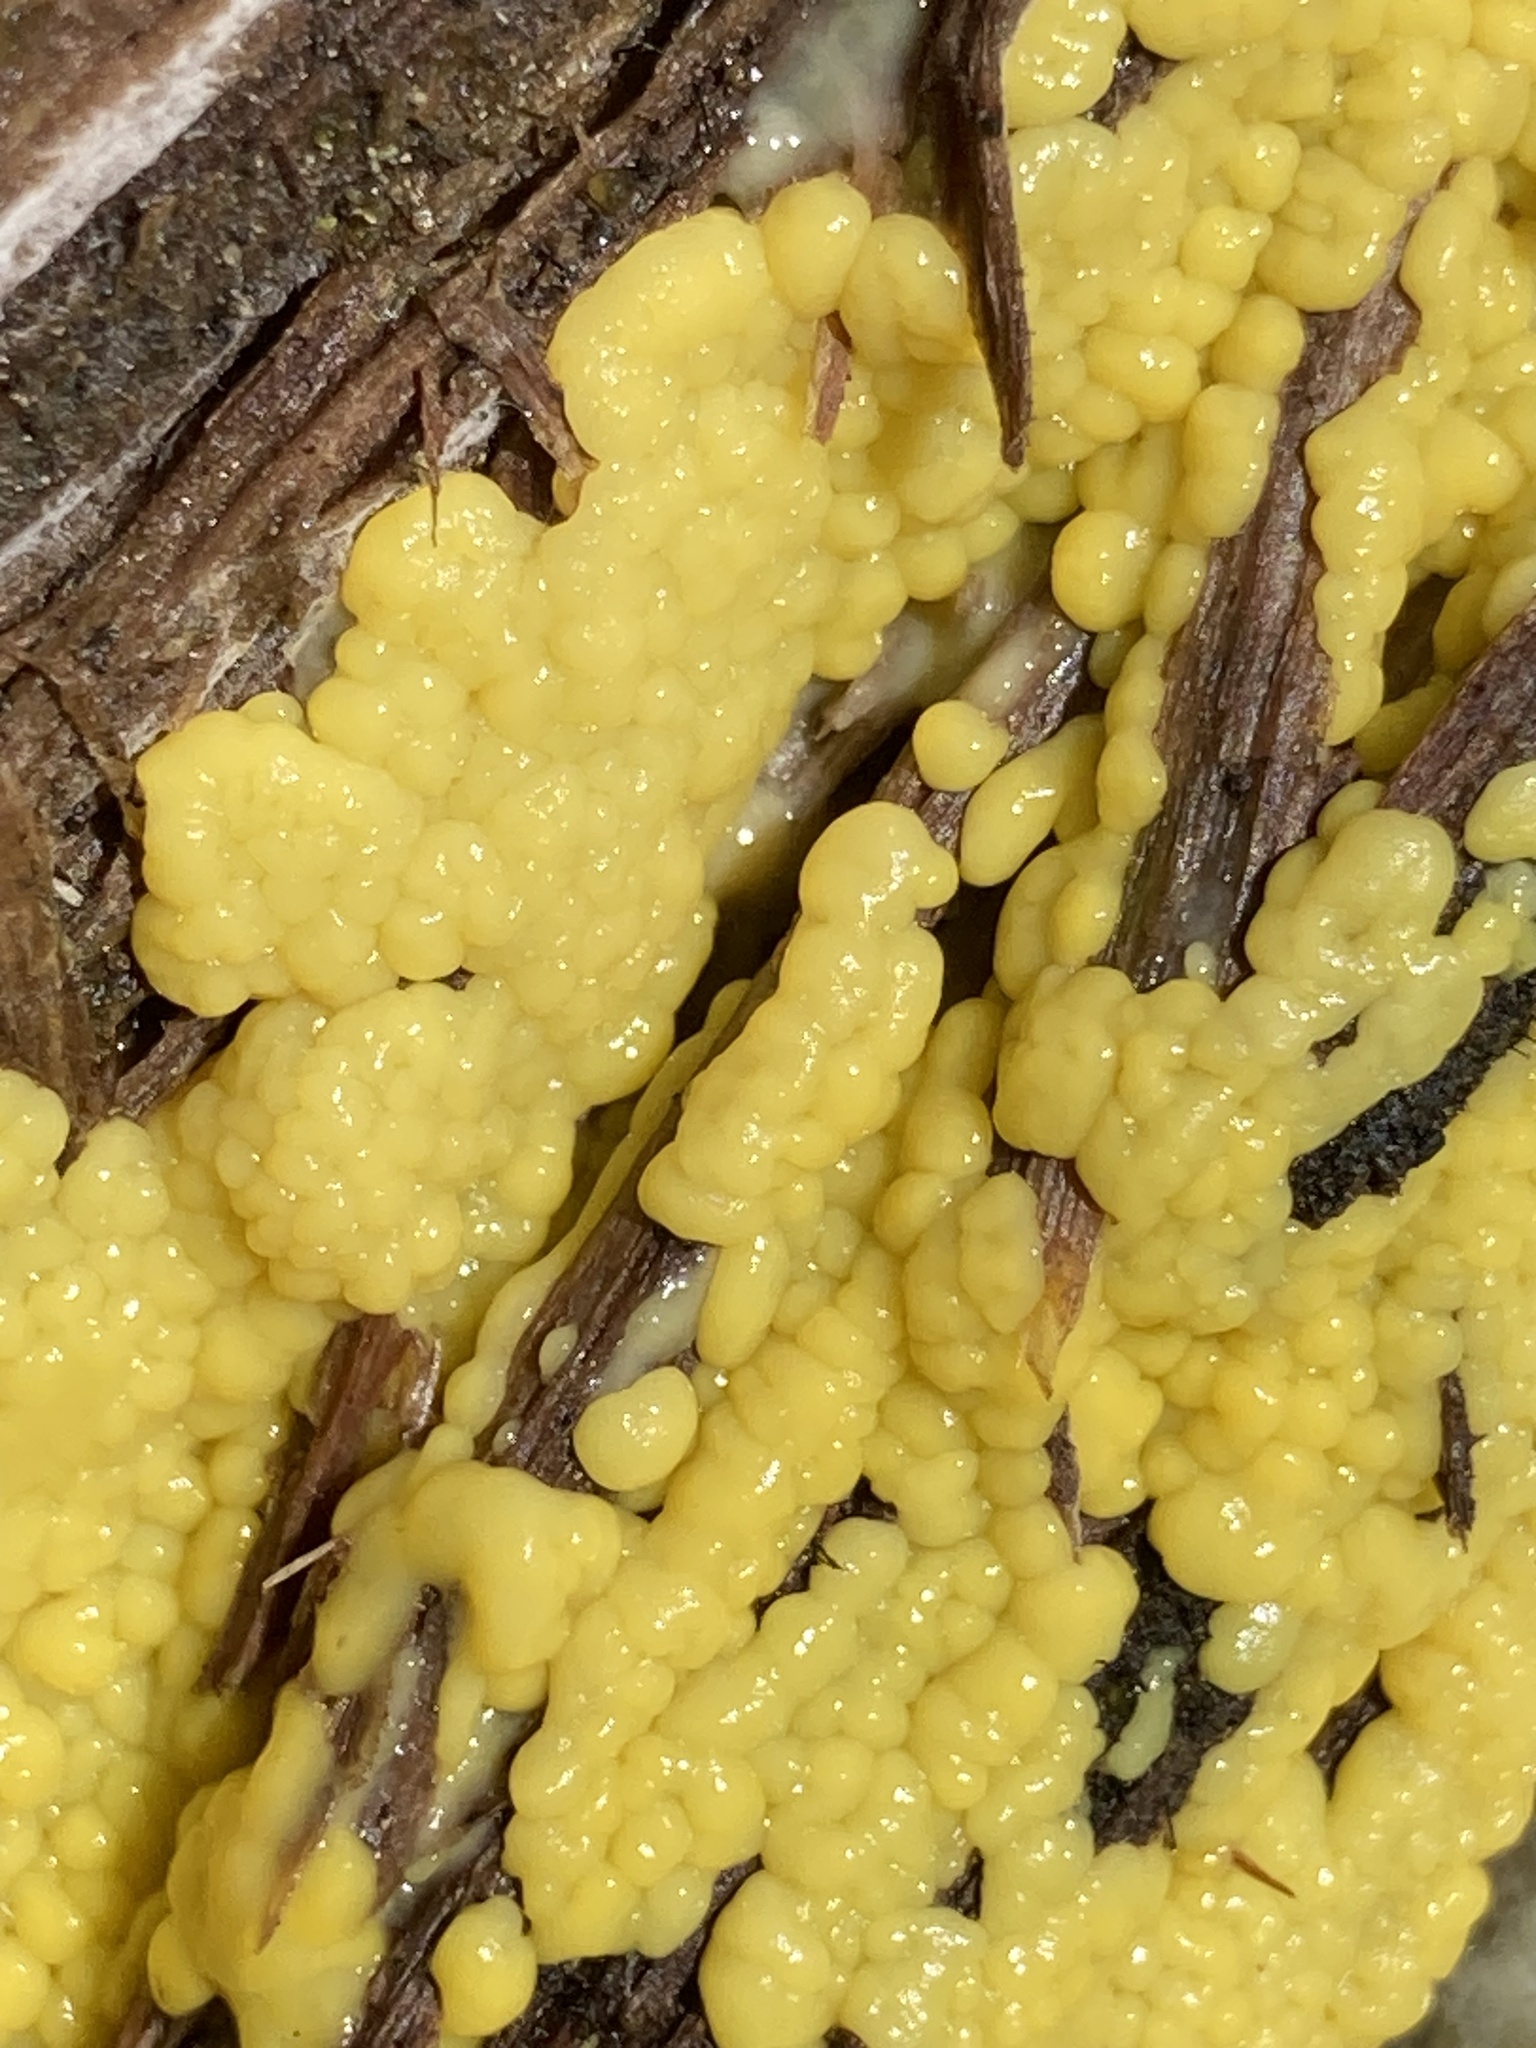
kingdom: Protozoa
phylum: Mycetozoa
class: Protosteliomycetes
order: Ceratiomyxales
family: Ceratiomyxaceae
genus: Ceratiomyxa
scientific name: Ceratiomyxa fruticulosa
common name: Honeycomb coral slime mold
